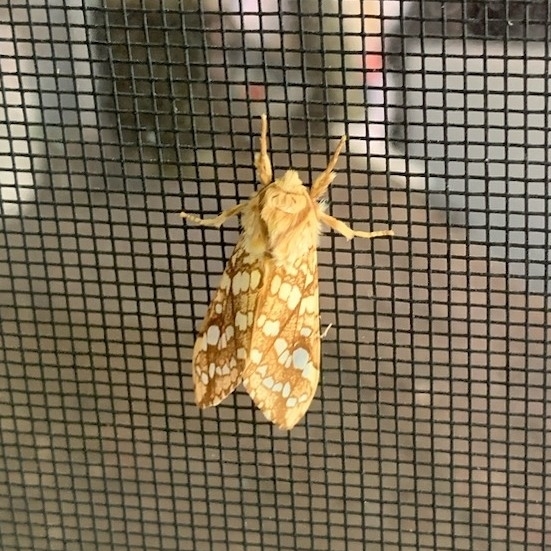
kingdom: Animalia
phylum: Arthropoda
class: Insecta
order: Lepidoptera
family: Erebidae
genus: Lophocampa
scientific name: Lophocampa caryae
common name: Hickory tussock moth
